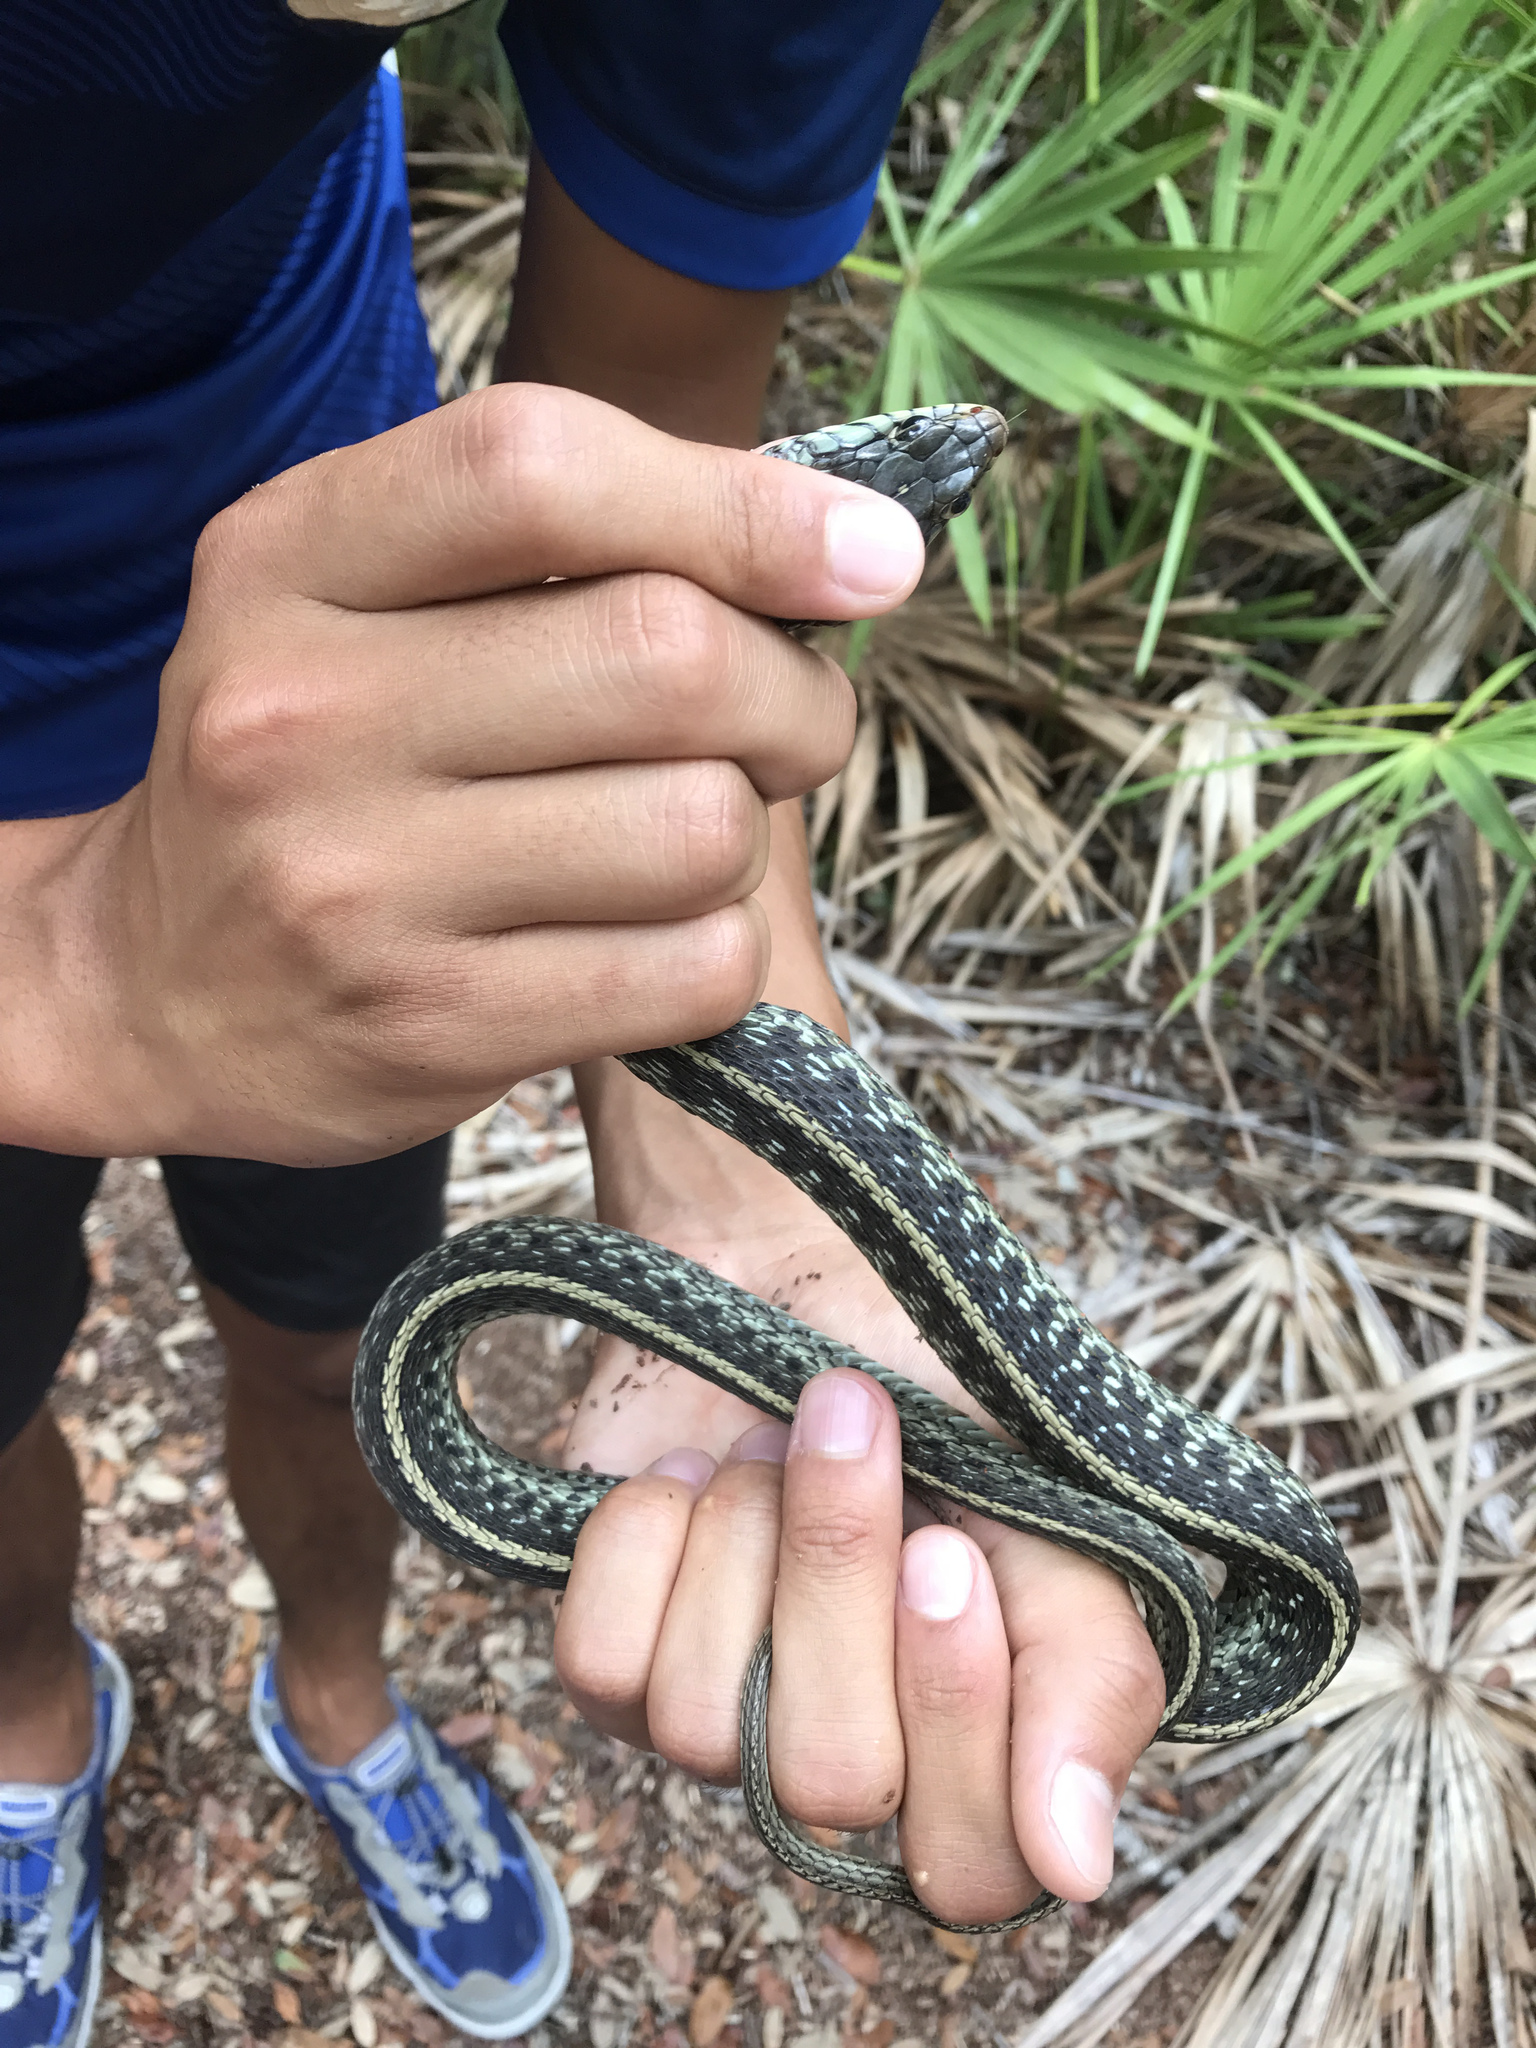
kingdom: Animalia
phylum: Chordata
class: Squamata
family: Colubridae
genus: Thamnophis
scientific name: Thamnophis sirtalis
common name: Common garter snake
